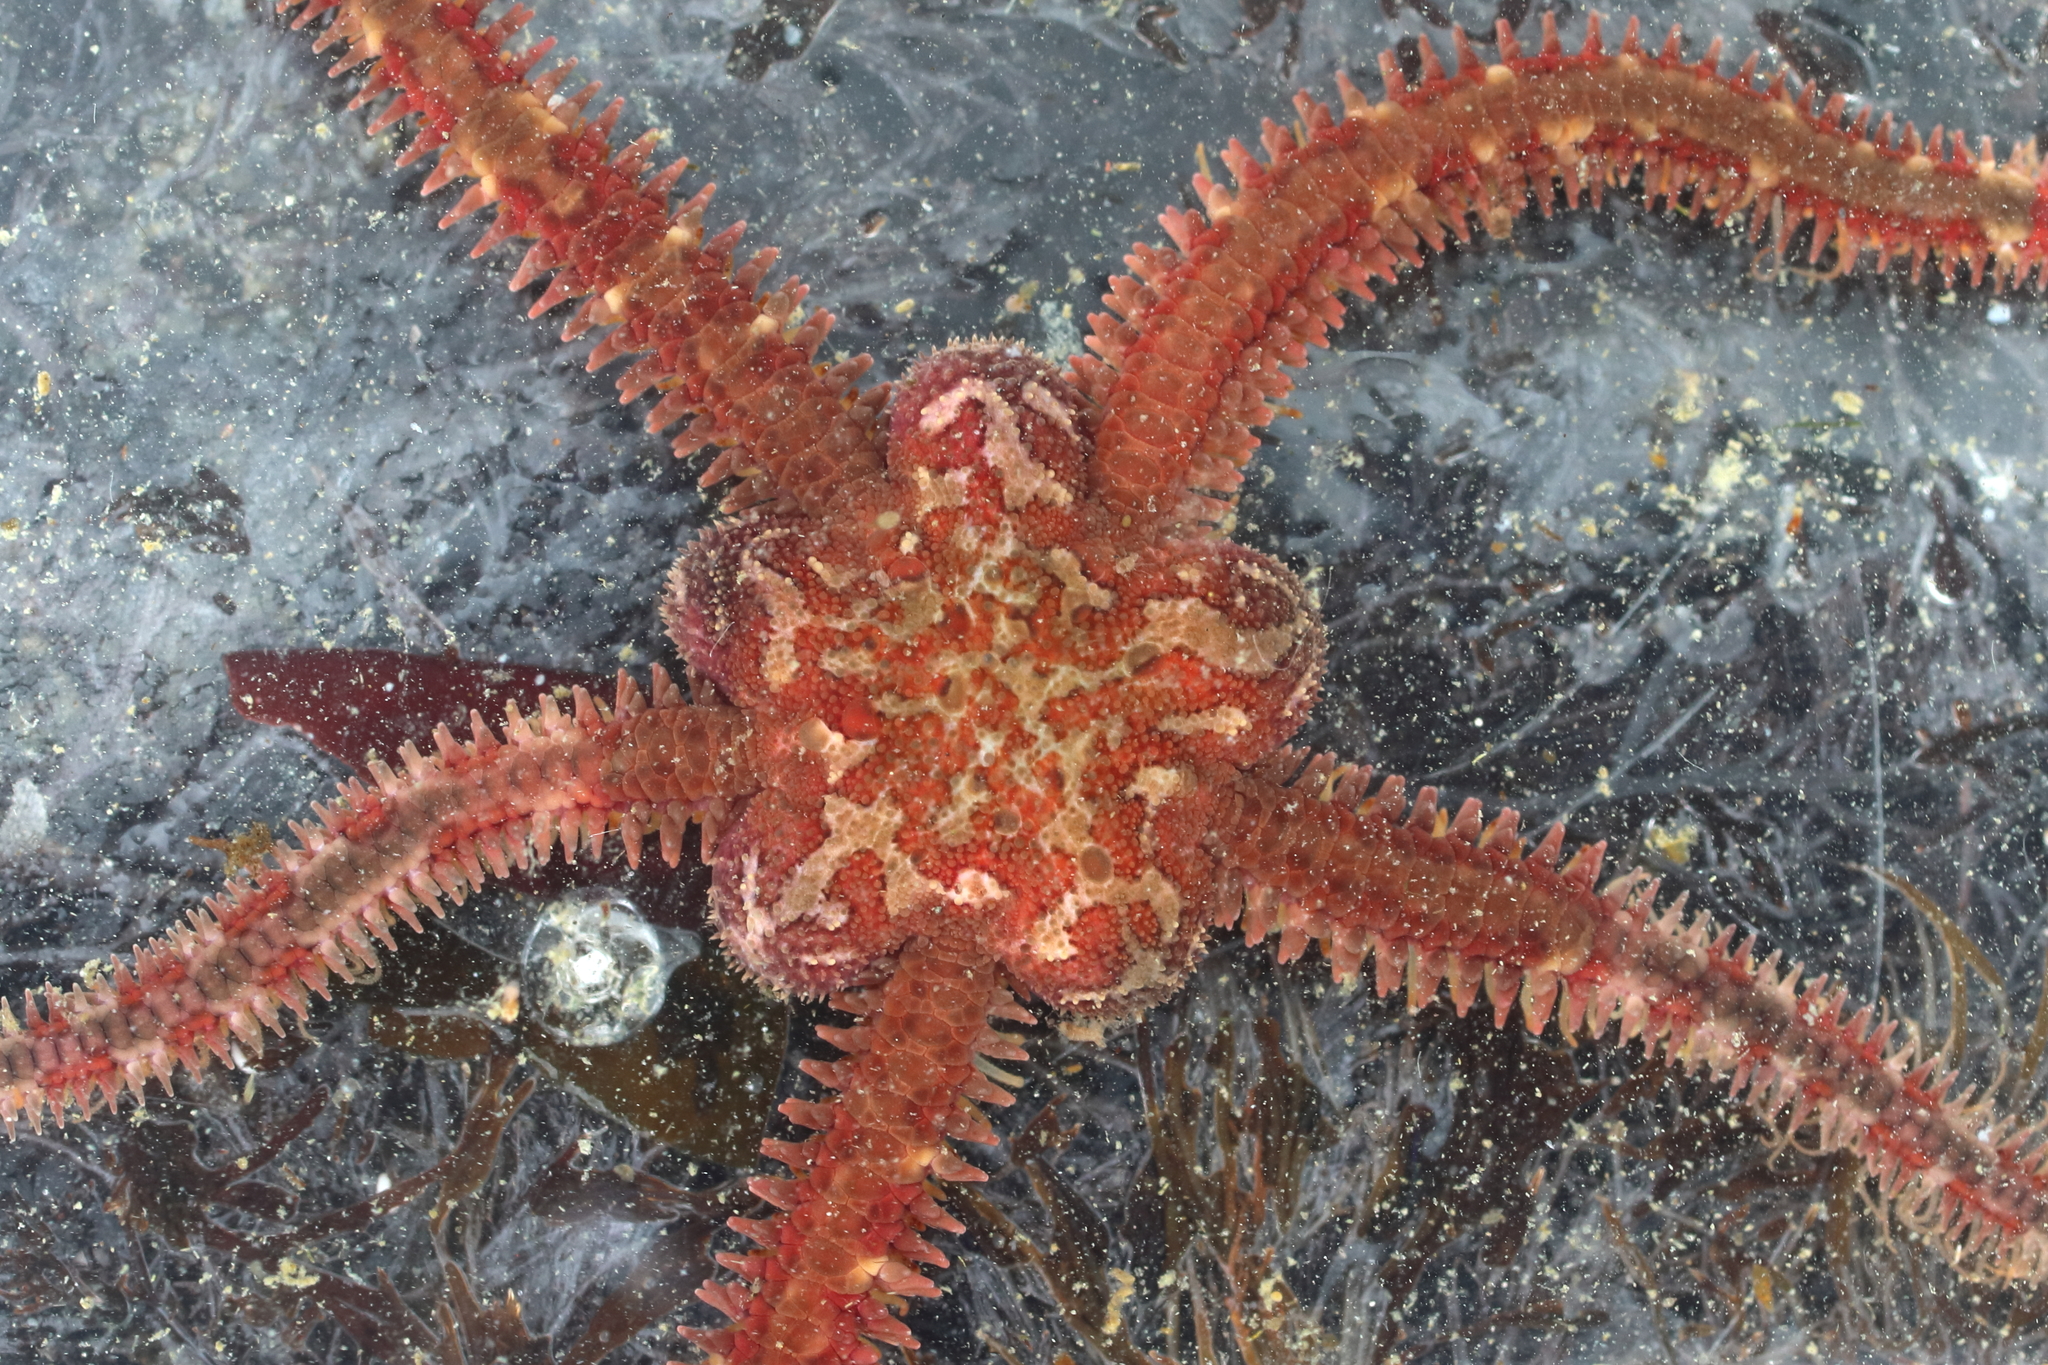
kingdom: Animalia
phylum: Echinodermata
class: Ophiuroidea
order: Amphilepidida
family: Ophiopholidae
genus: Ophiopholis
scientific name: Ophiopholis kennerlyi
